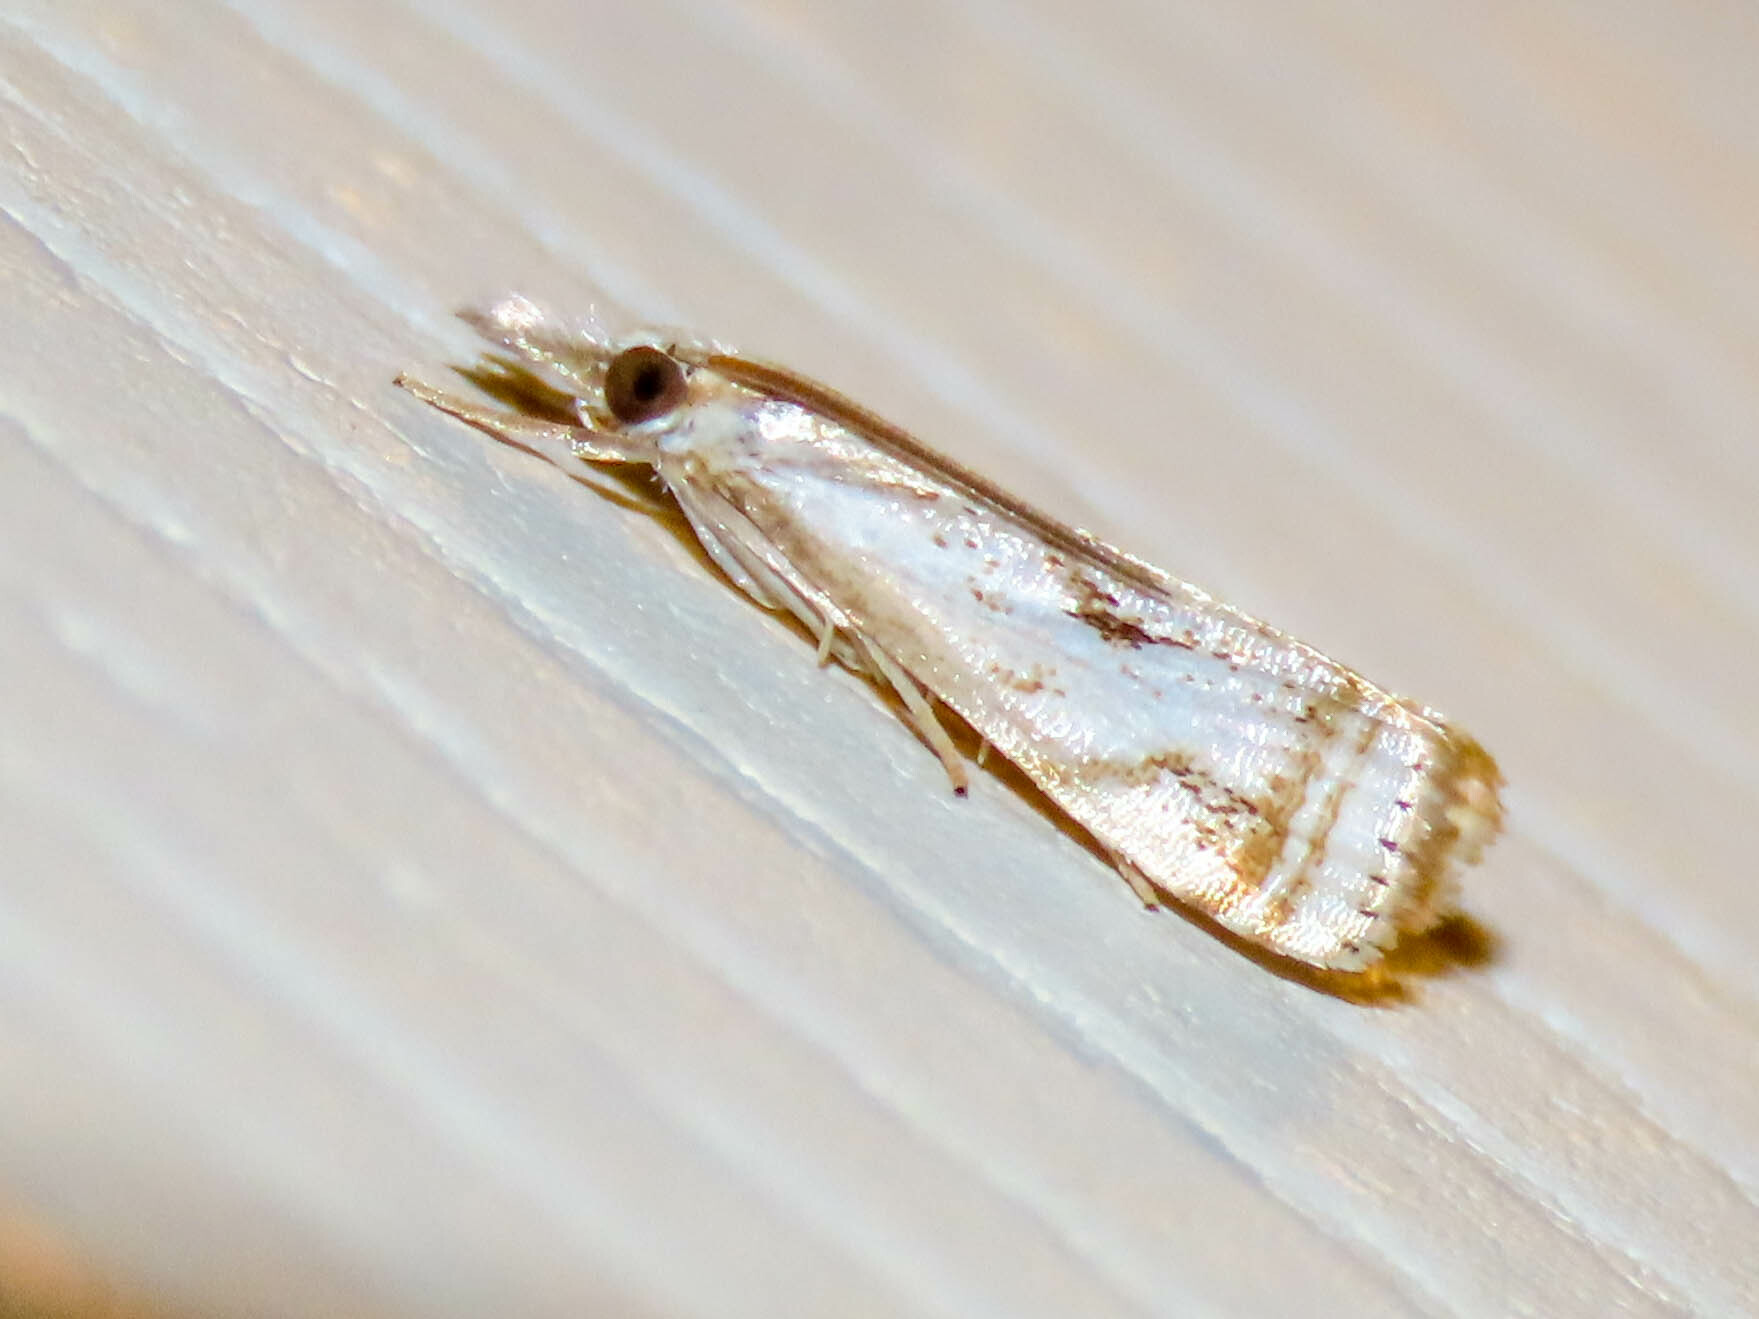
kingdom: Animalia
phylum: Arthropoda
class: Insecta
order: Lepidoptera
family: Crambidae
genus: Microcrambus
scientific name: Microcrambus elegans
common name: Elegant grass-veneer
